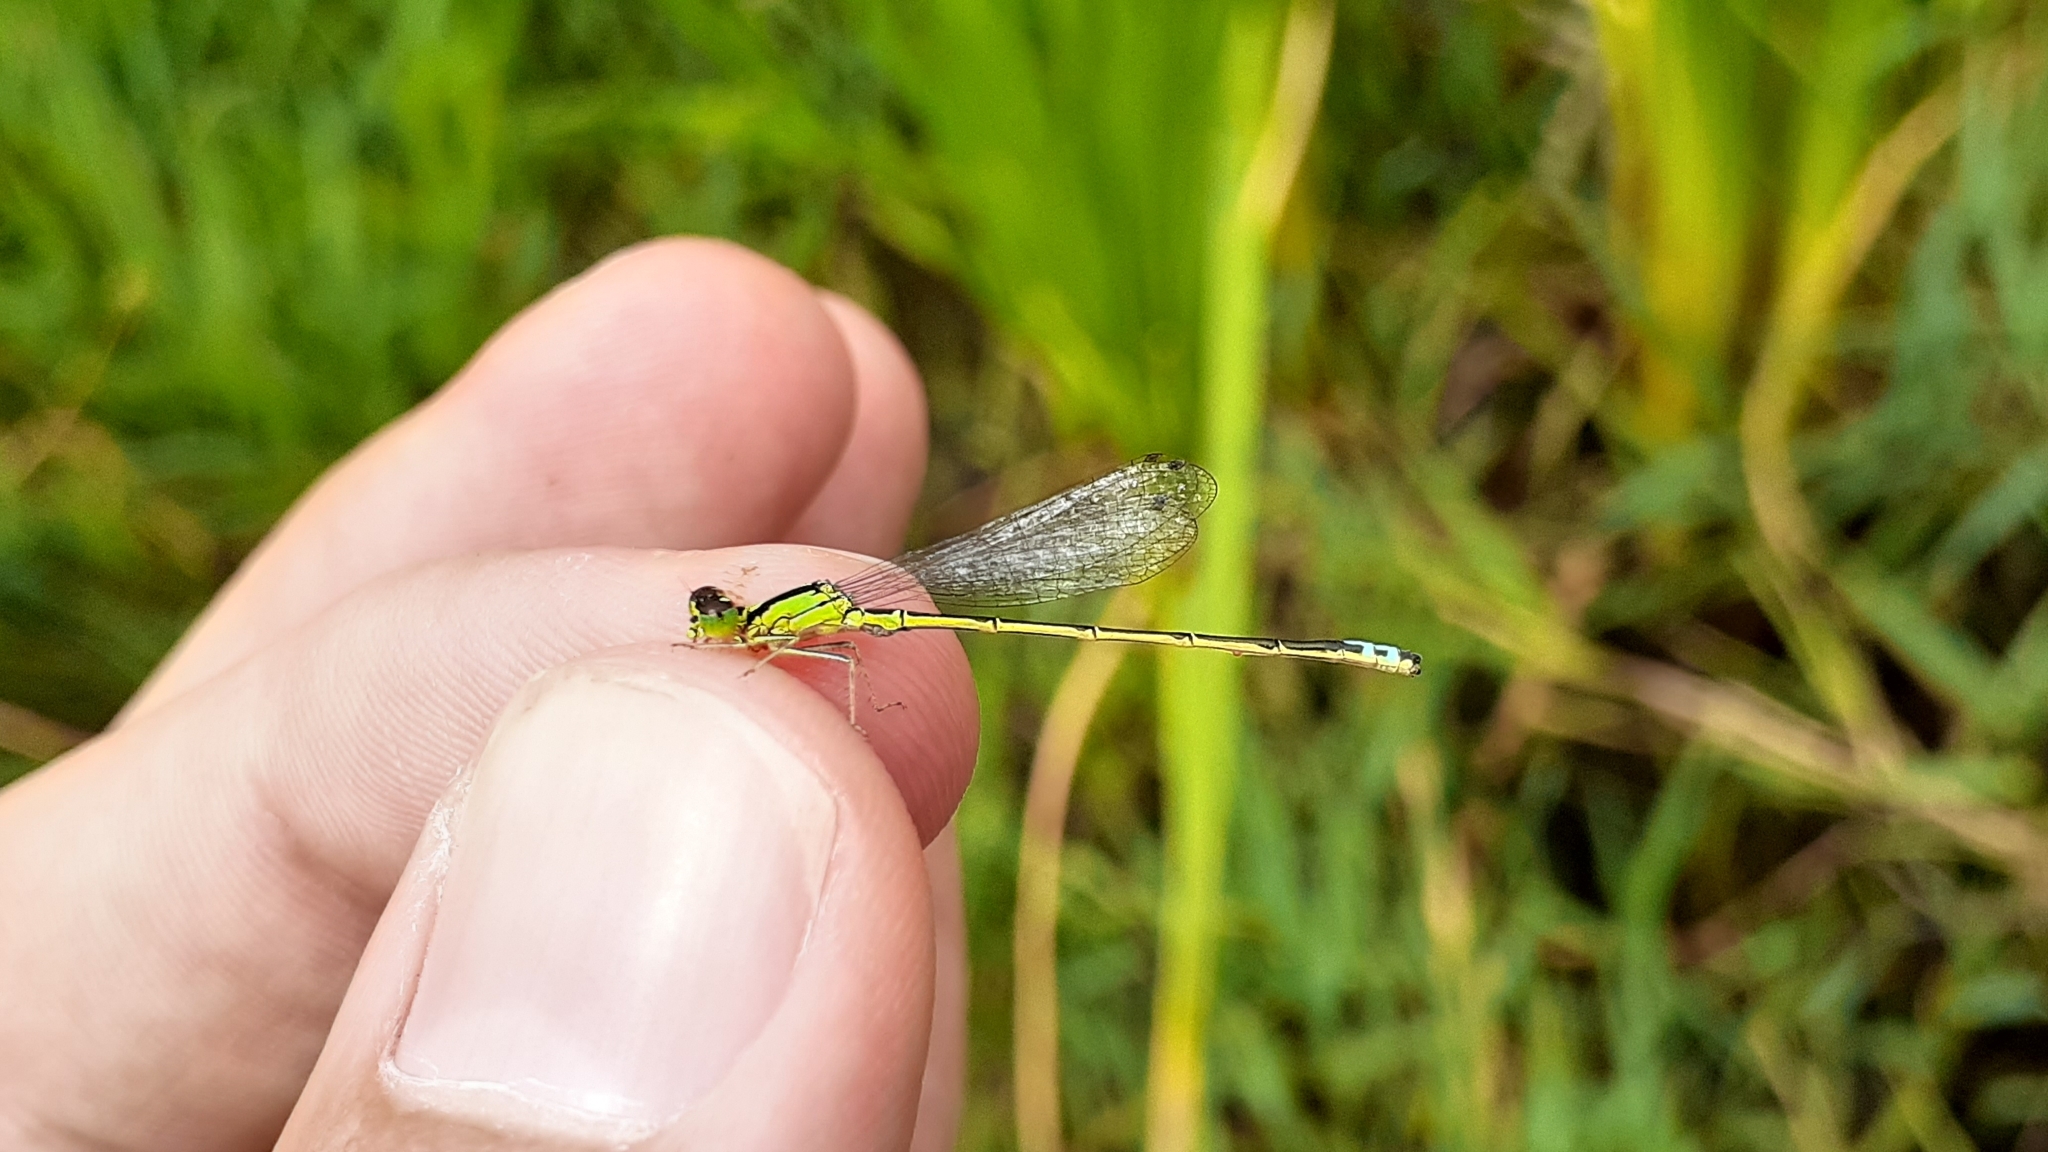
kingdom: Animalia
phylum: Arthropoda
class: Insecta
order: Odonata
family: Coenagrionidae
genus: Ischnura
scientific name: Ischnura verticalis
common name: Eastern forktail
